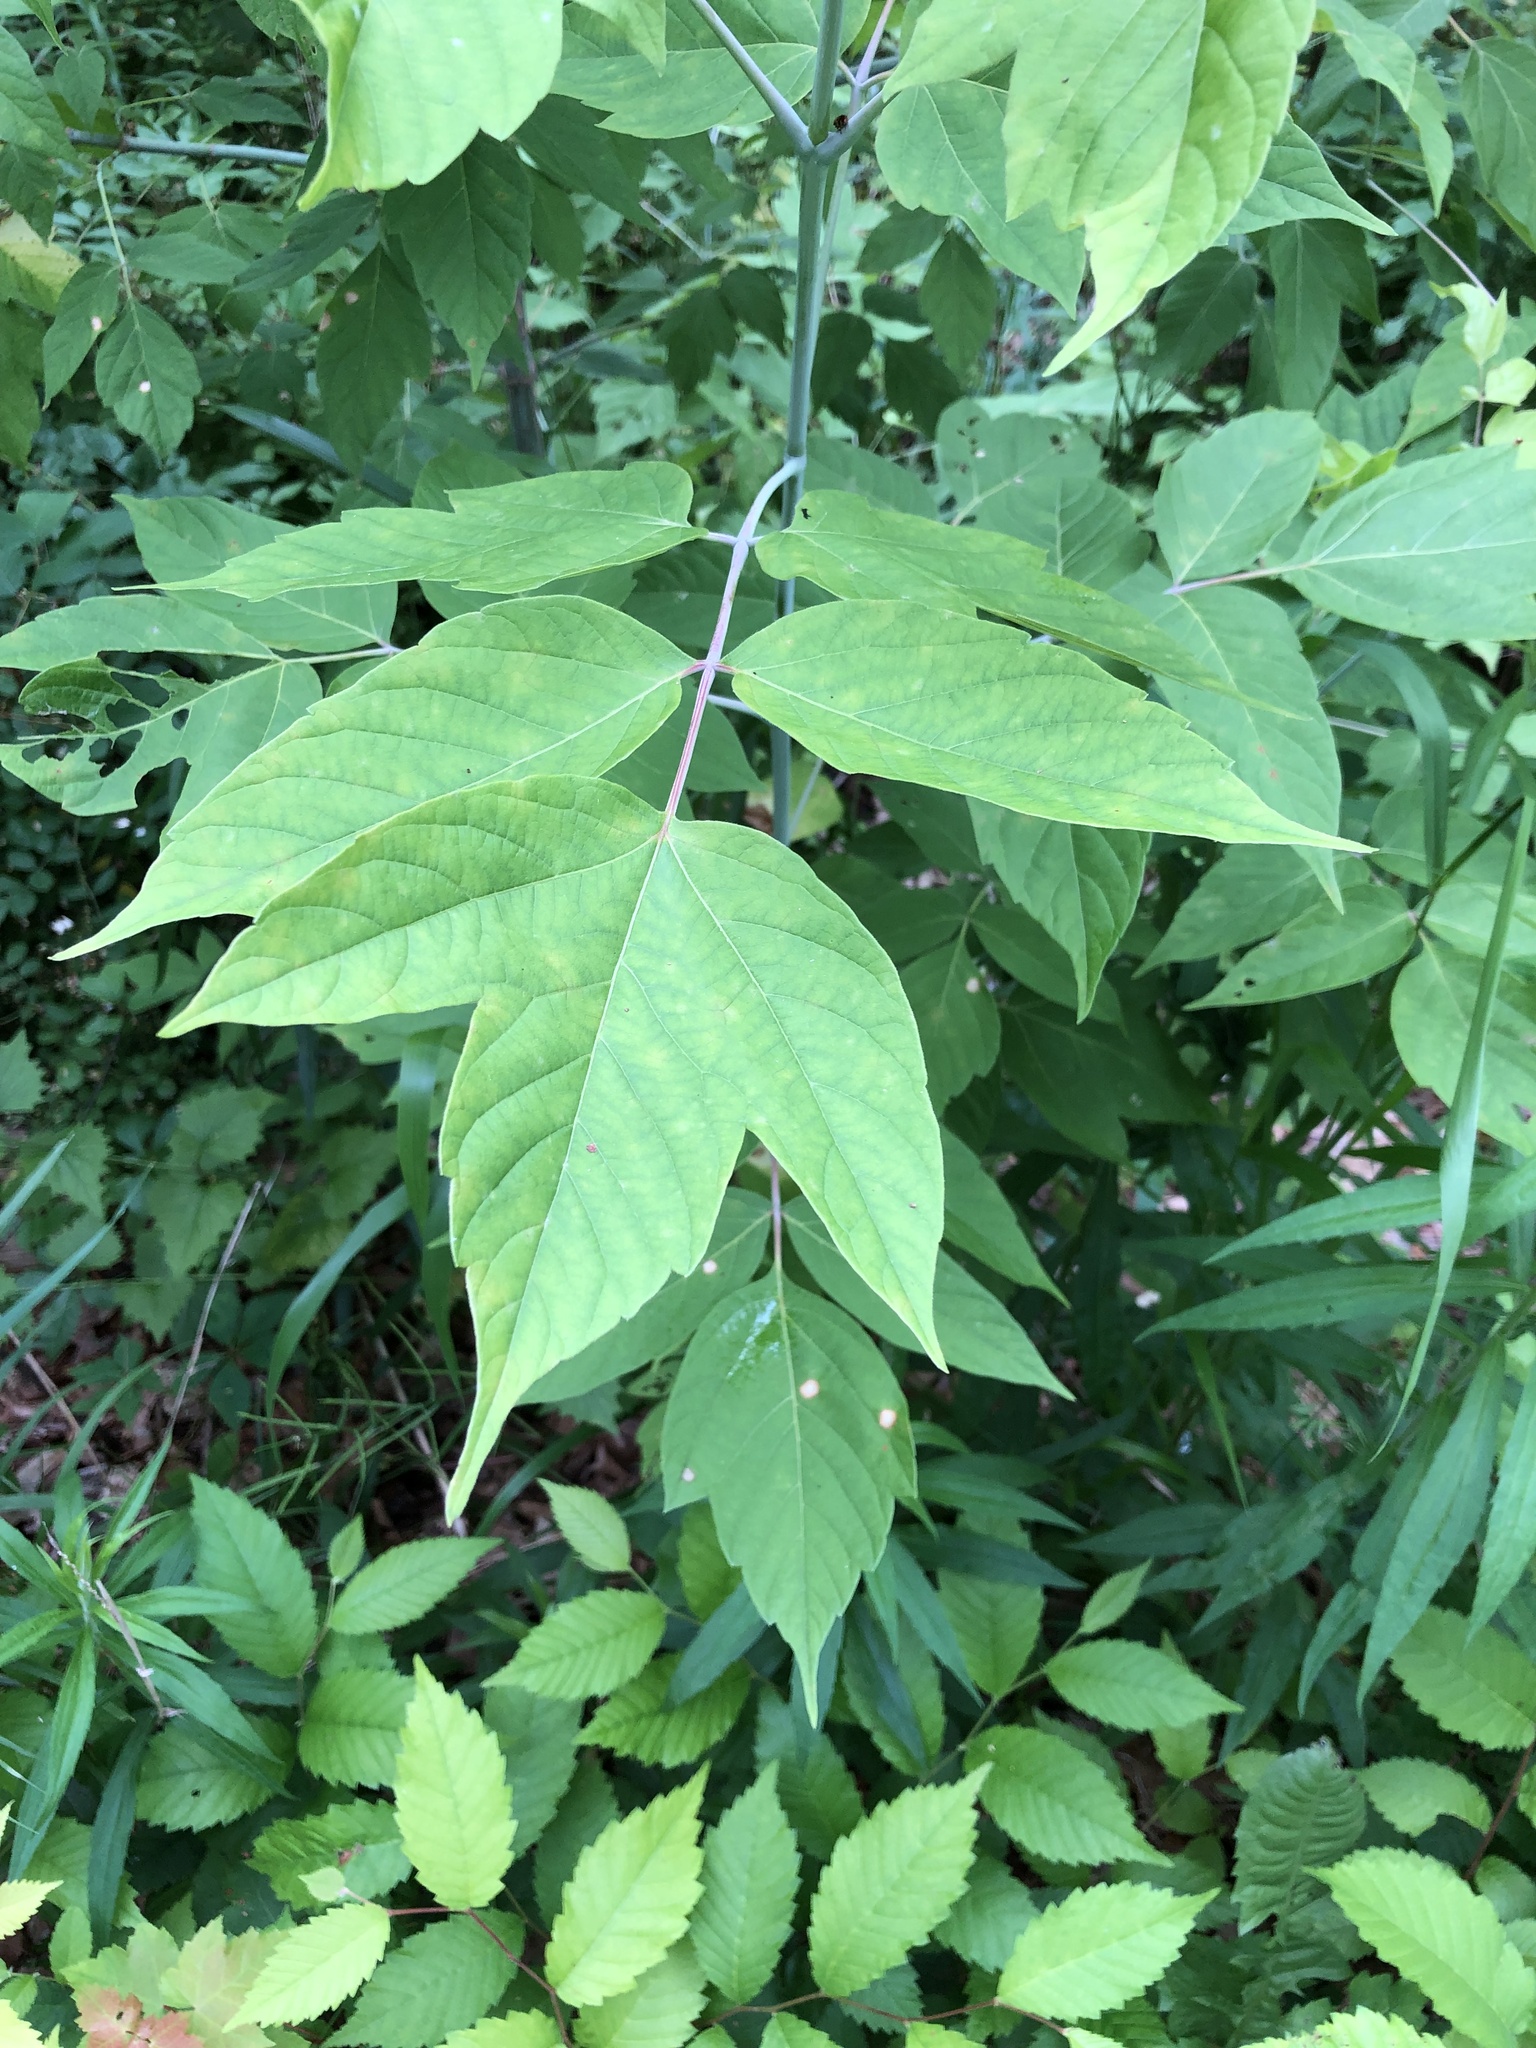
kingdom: Plantae
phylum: Tracheophyta
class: Magnoliopsida
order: Sapindales
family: Sapindaceae
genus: Acer
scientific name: Acer negundo
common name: Ashleaf maple
